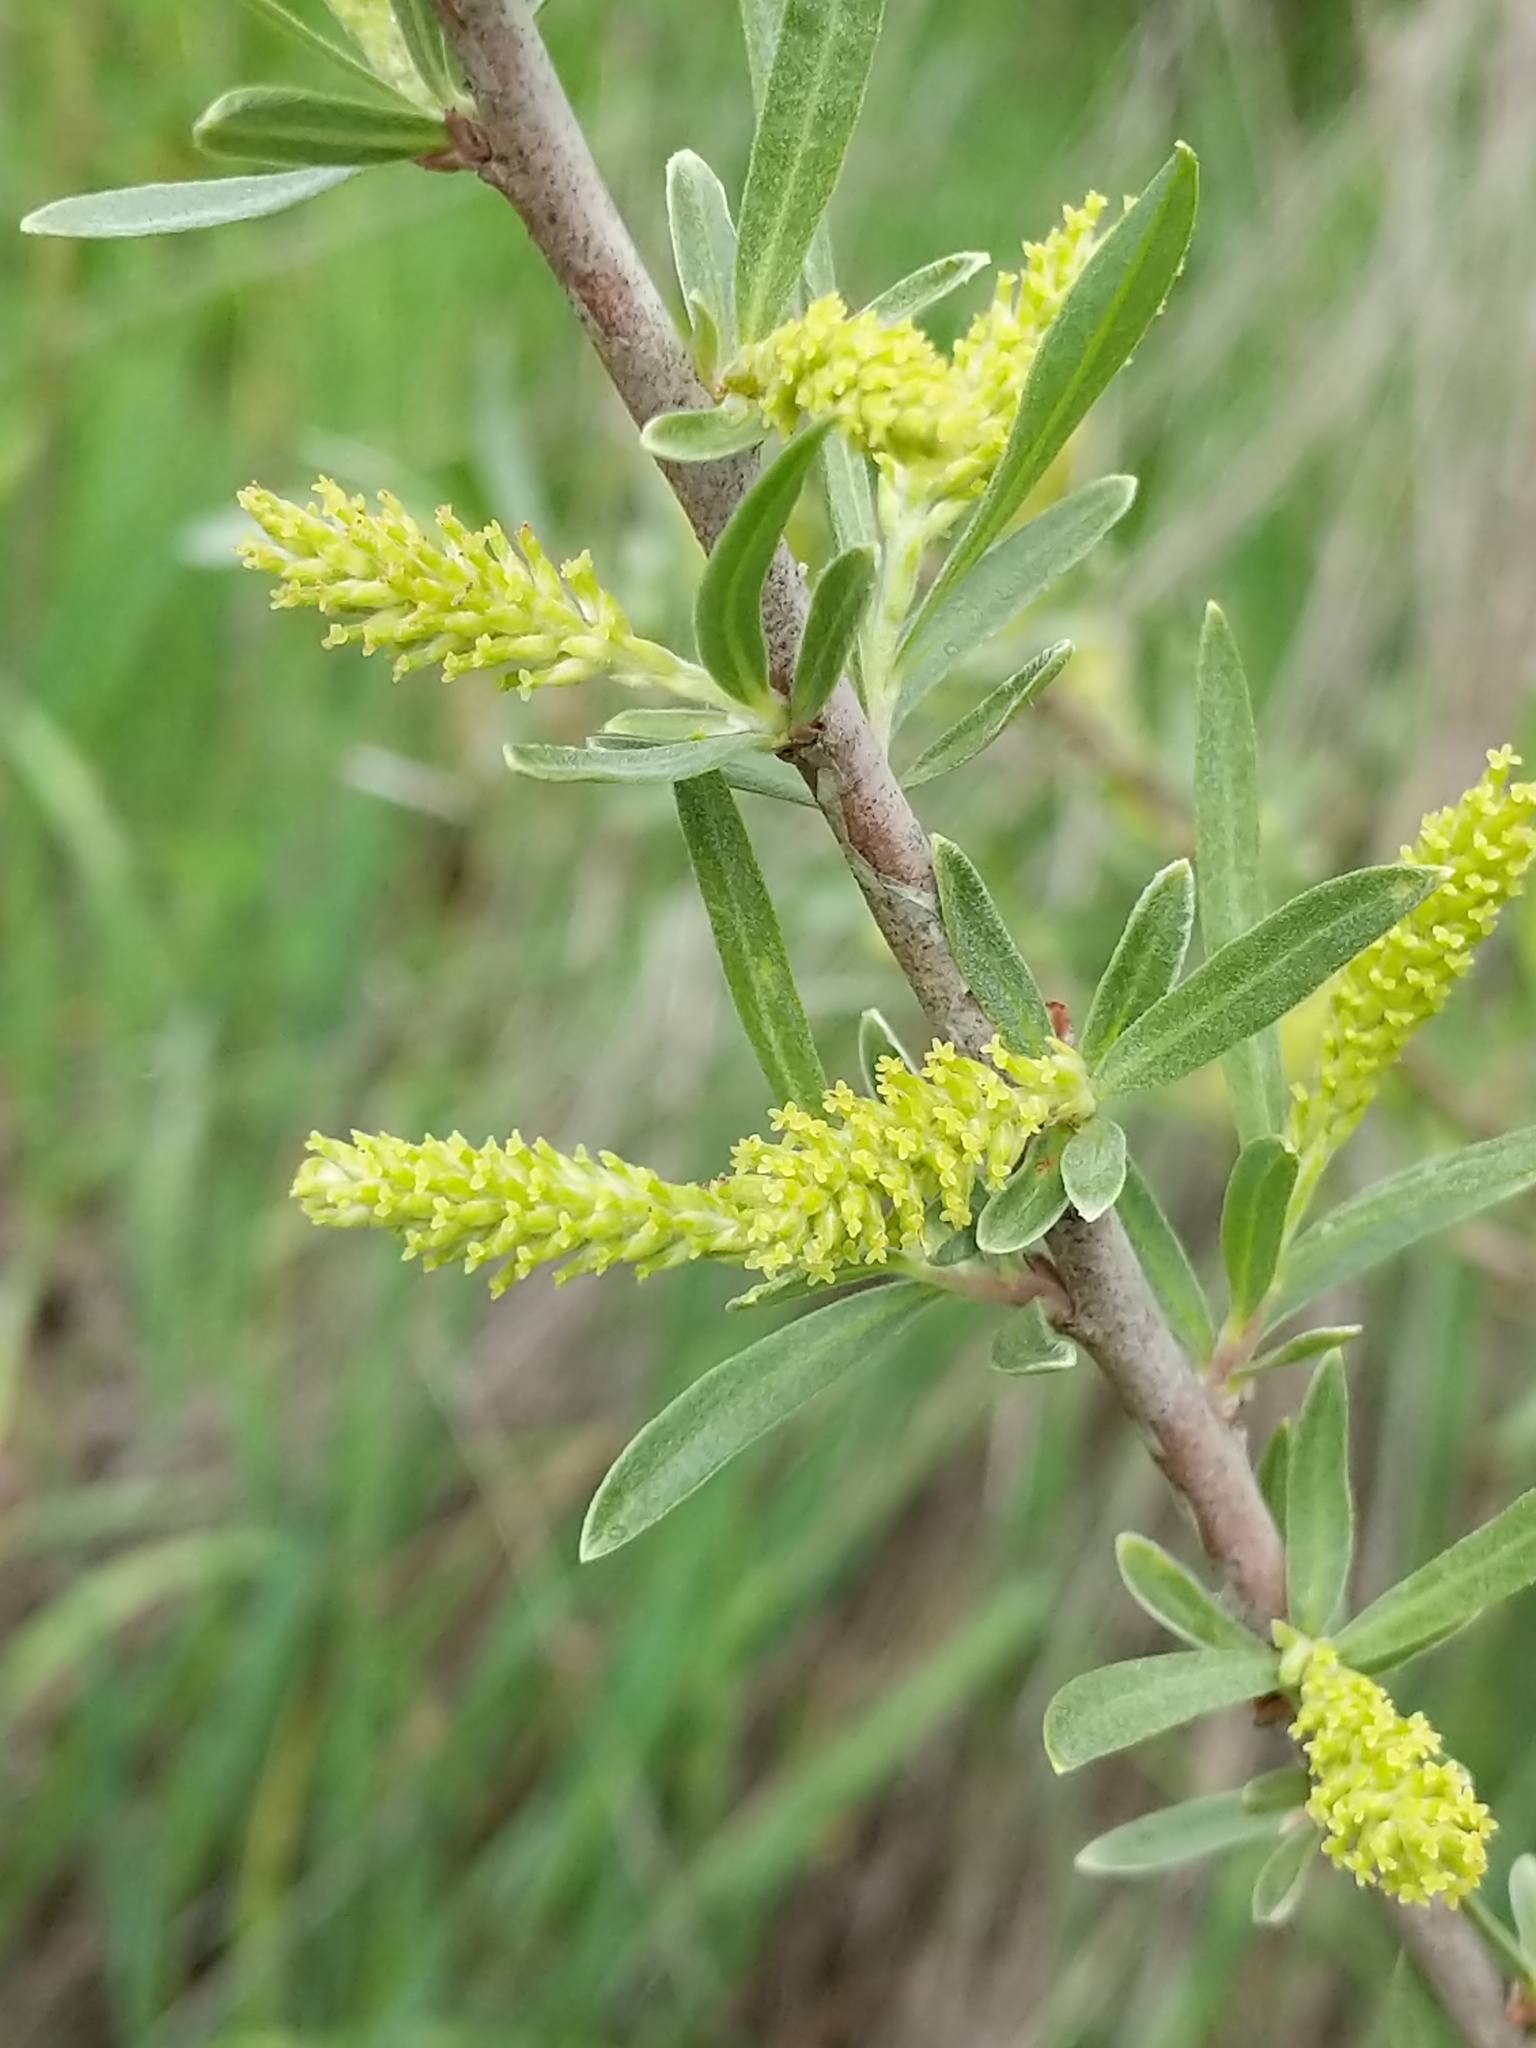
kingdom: Plantae
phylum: Tracheophyta
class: Magnoliopsida
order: Malpighiales
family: Salicaceae
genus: Salix
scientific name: Salix exigua
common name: Coyote willow
